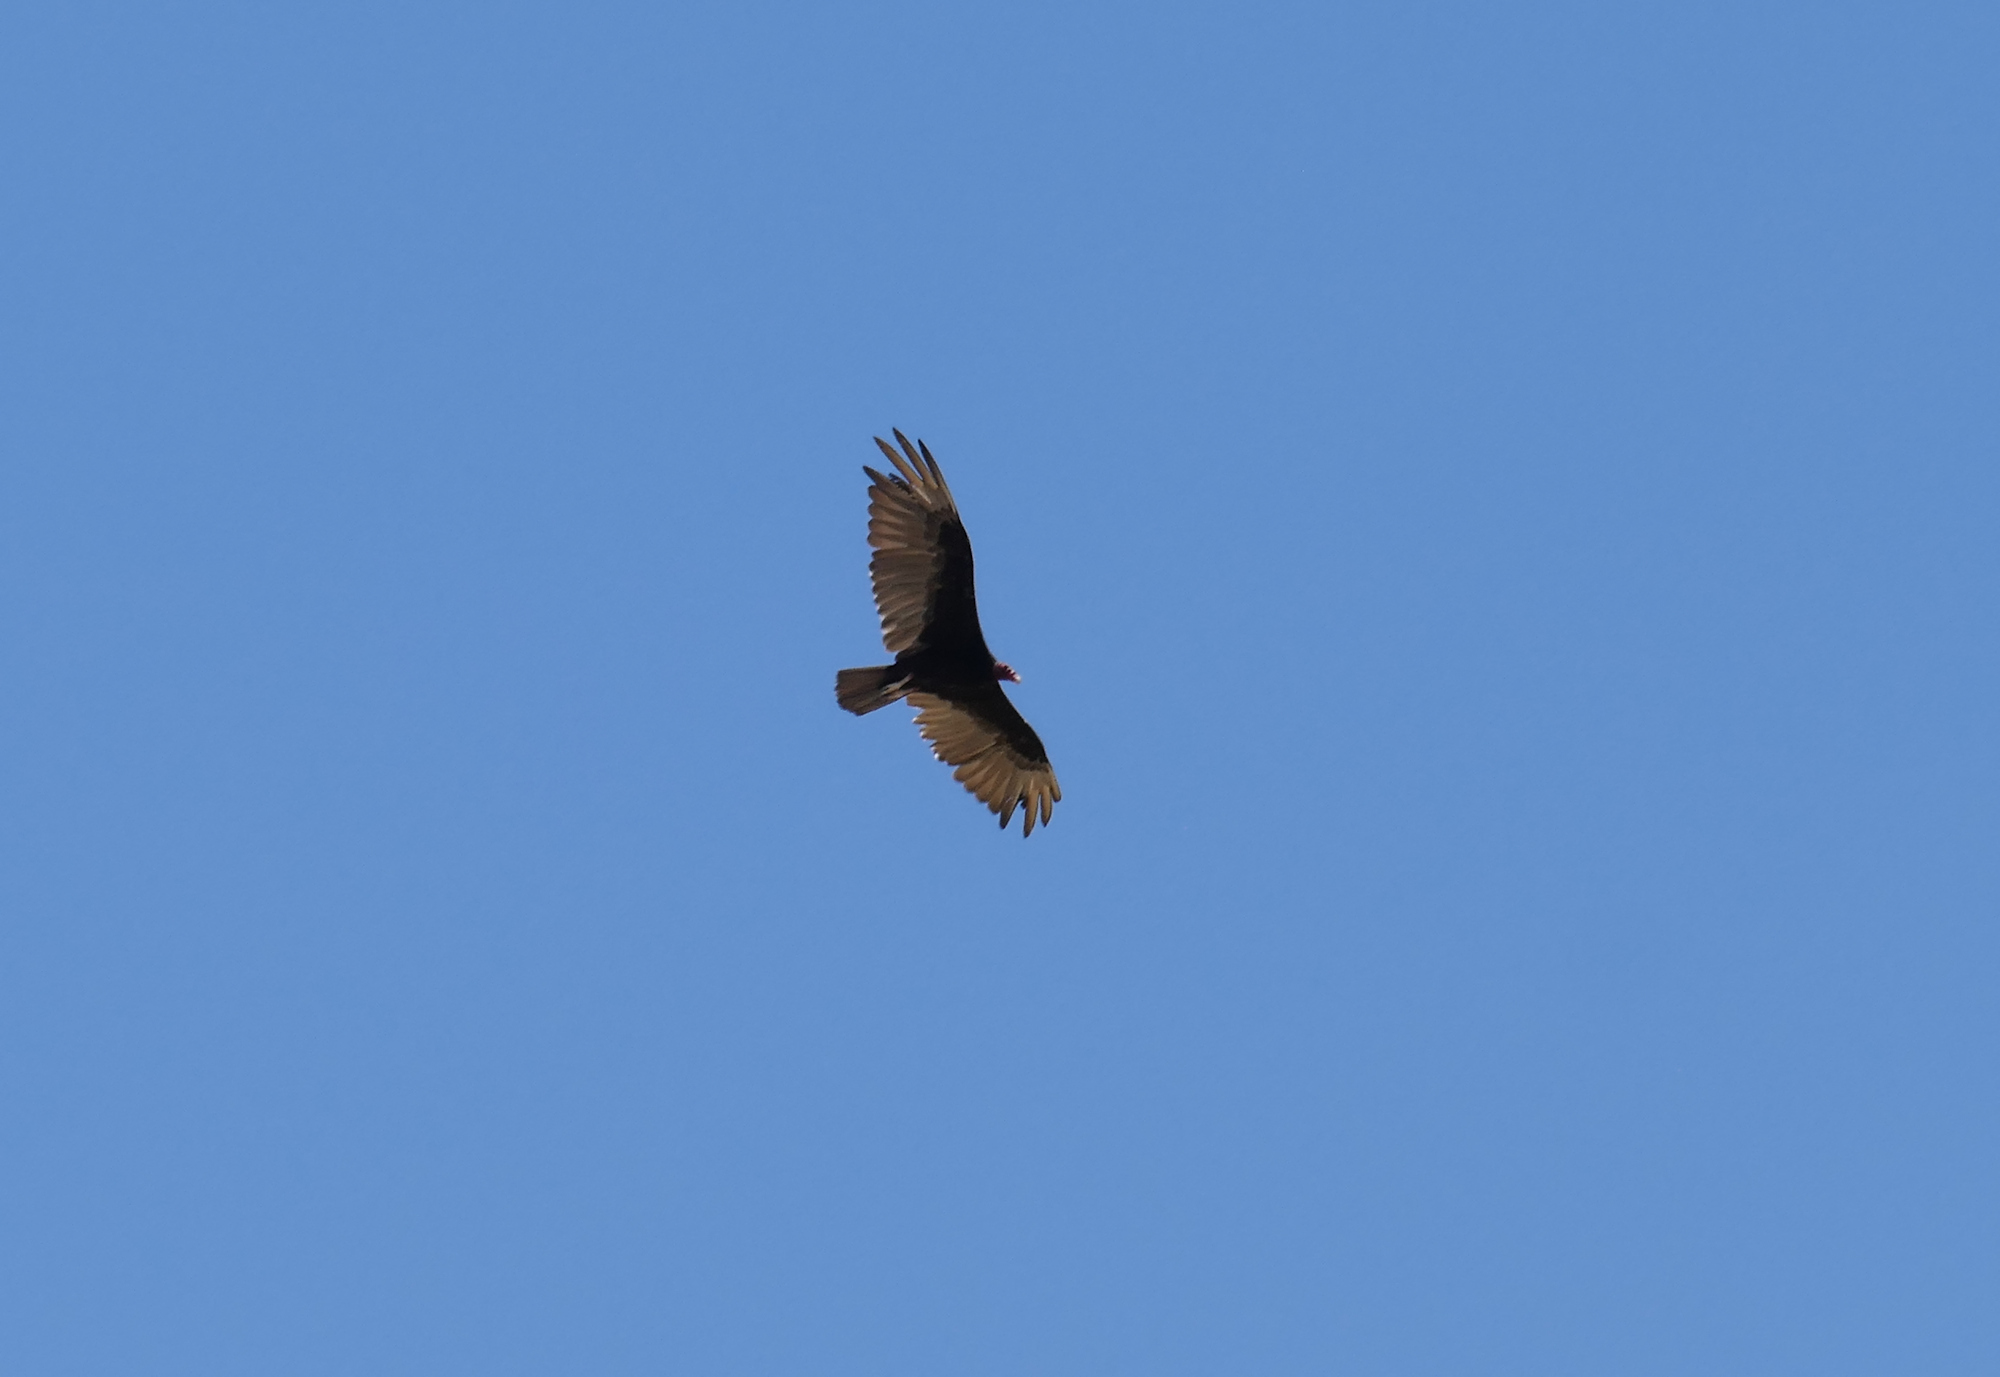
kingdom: Animalia
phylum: Chordata
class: Aves
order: Accipitriformes
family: Cathartidae
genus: Cathartes
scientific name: Cathartes aura
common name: Turkey vulture
